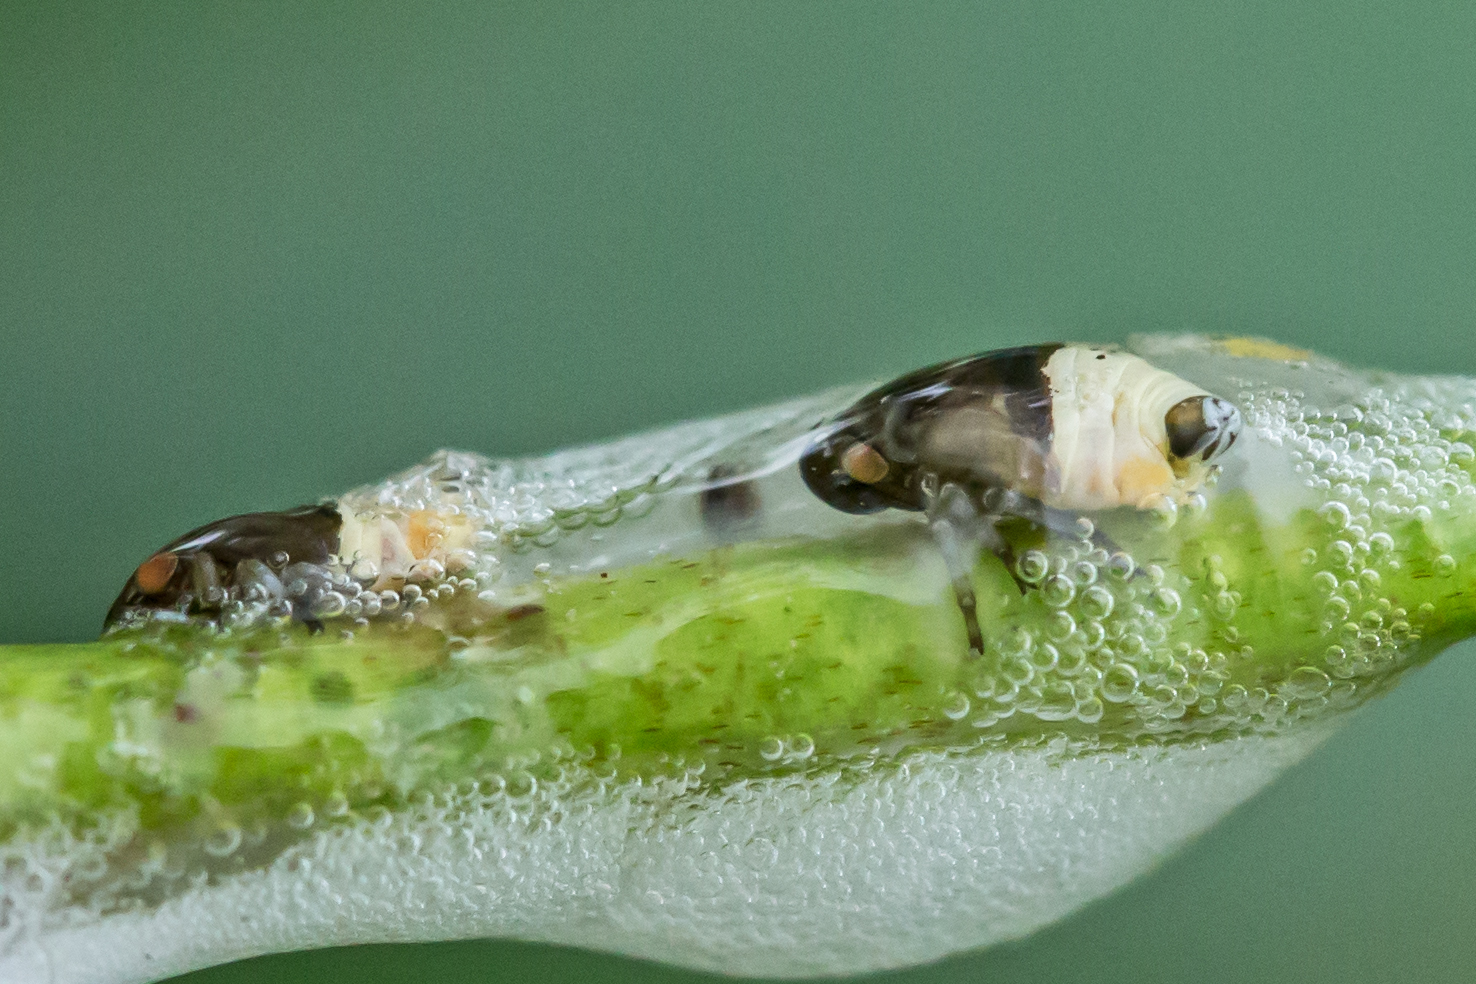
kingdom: Animalia
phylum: Arthropoda
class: Insecta
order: Hemiptera
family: Clastopteridae
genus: Clastoptera
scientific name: Clastoptera proteus
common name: Dogwood spittlebug
